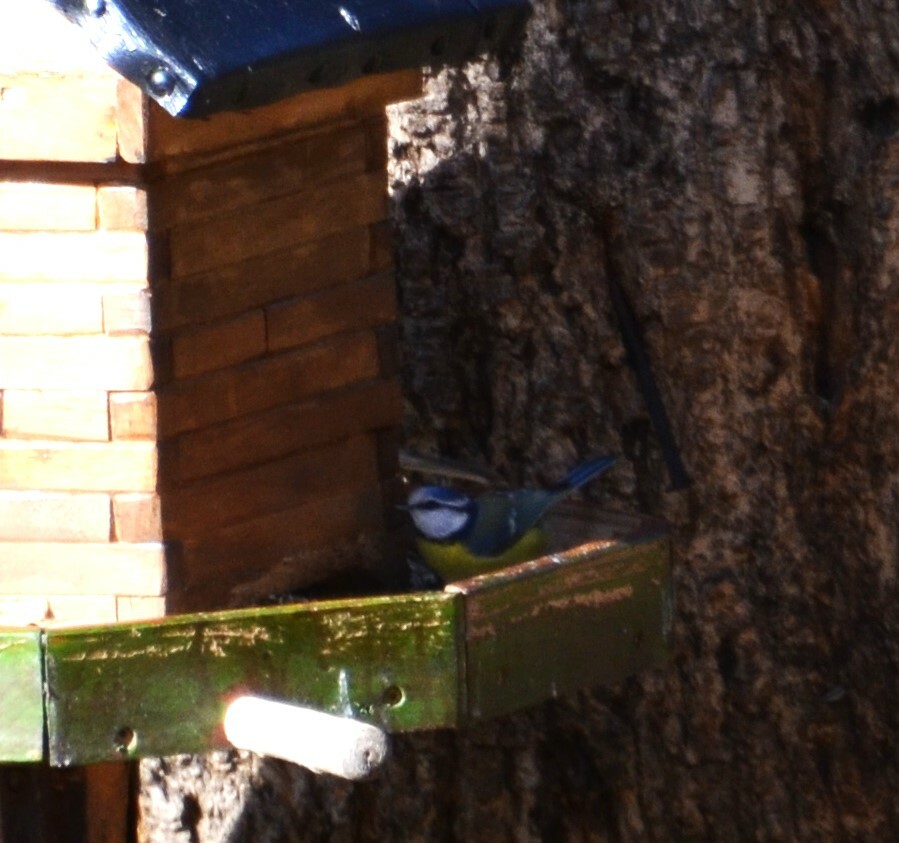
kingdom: Animalia
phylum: Chordata
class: Aves
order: Passeriformes
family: Paridae
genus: Cyanistes
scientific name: Cyanistes caeruleus
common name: Eurasian blue tit
